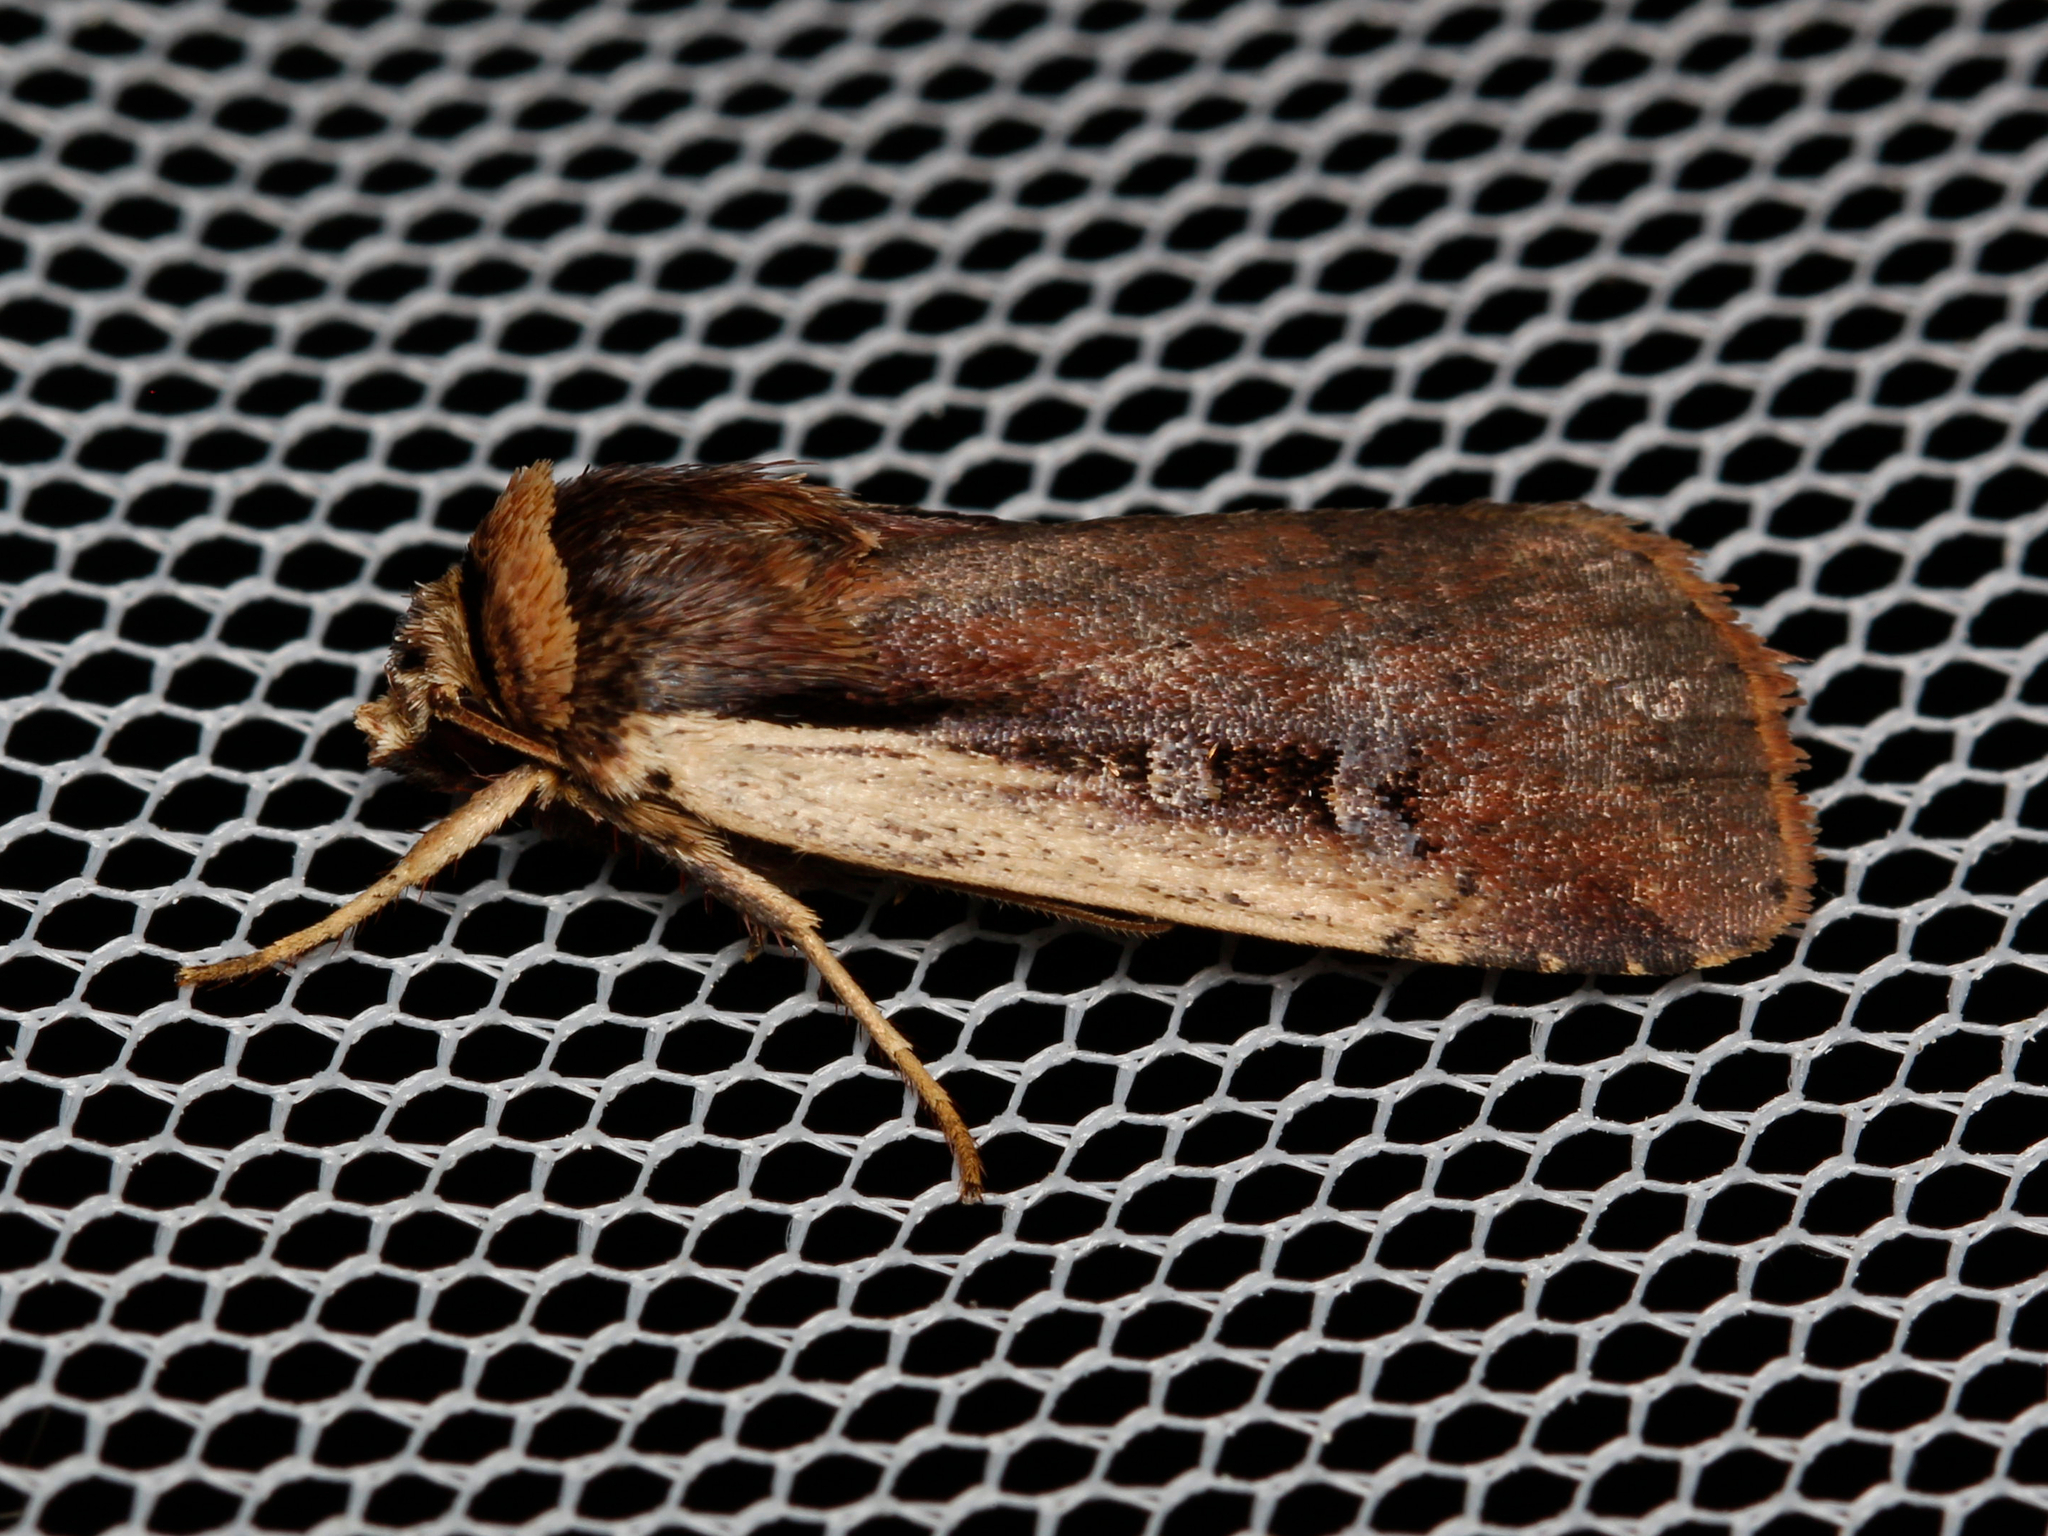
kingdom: Animalia
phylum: Arthropoda
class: Insecta
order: Lepidoptera
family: Noctuidae
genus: Ochropleura
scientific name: Ochropleura implecta
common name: Flame-shouldered dart
